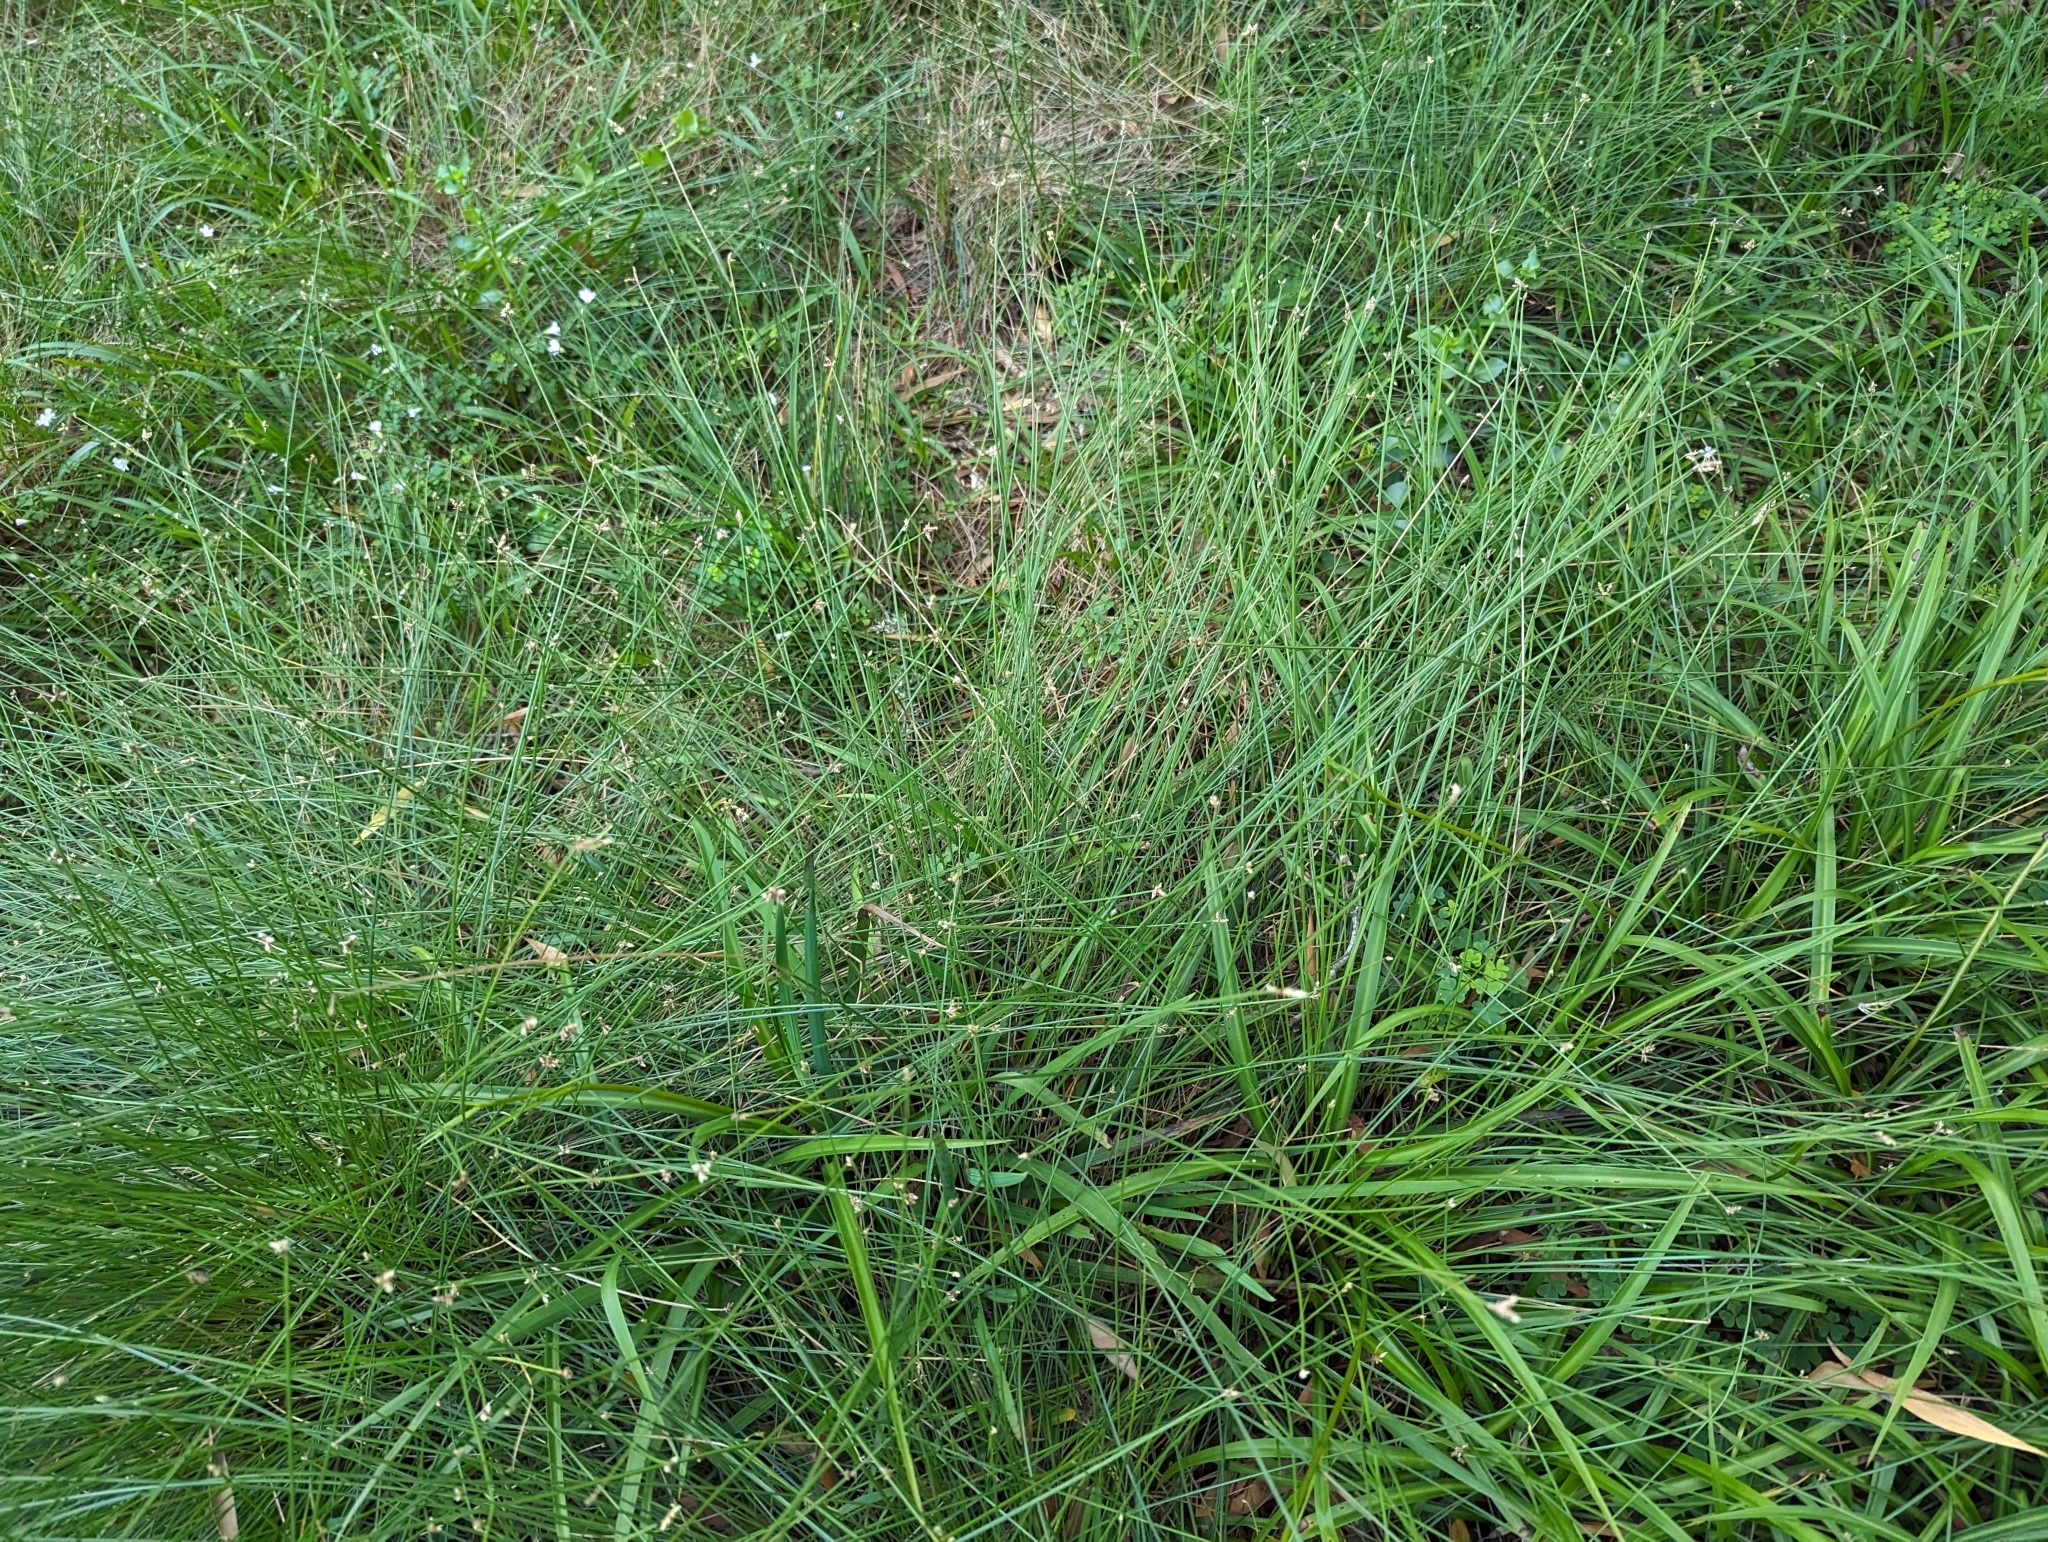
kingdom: Plantae
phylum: Tracheophyta
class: Liliopsida
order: Poales
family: Cyperaceae
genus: Ficinia
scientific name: Ficinia trispicata
